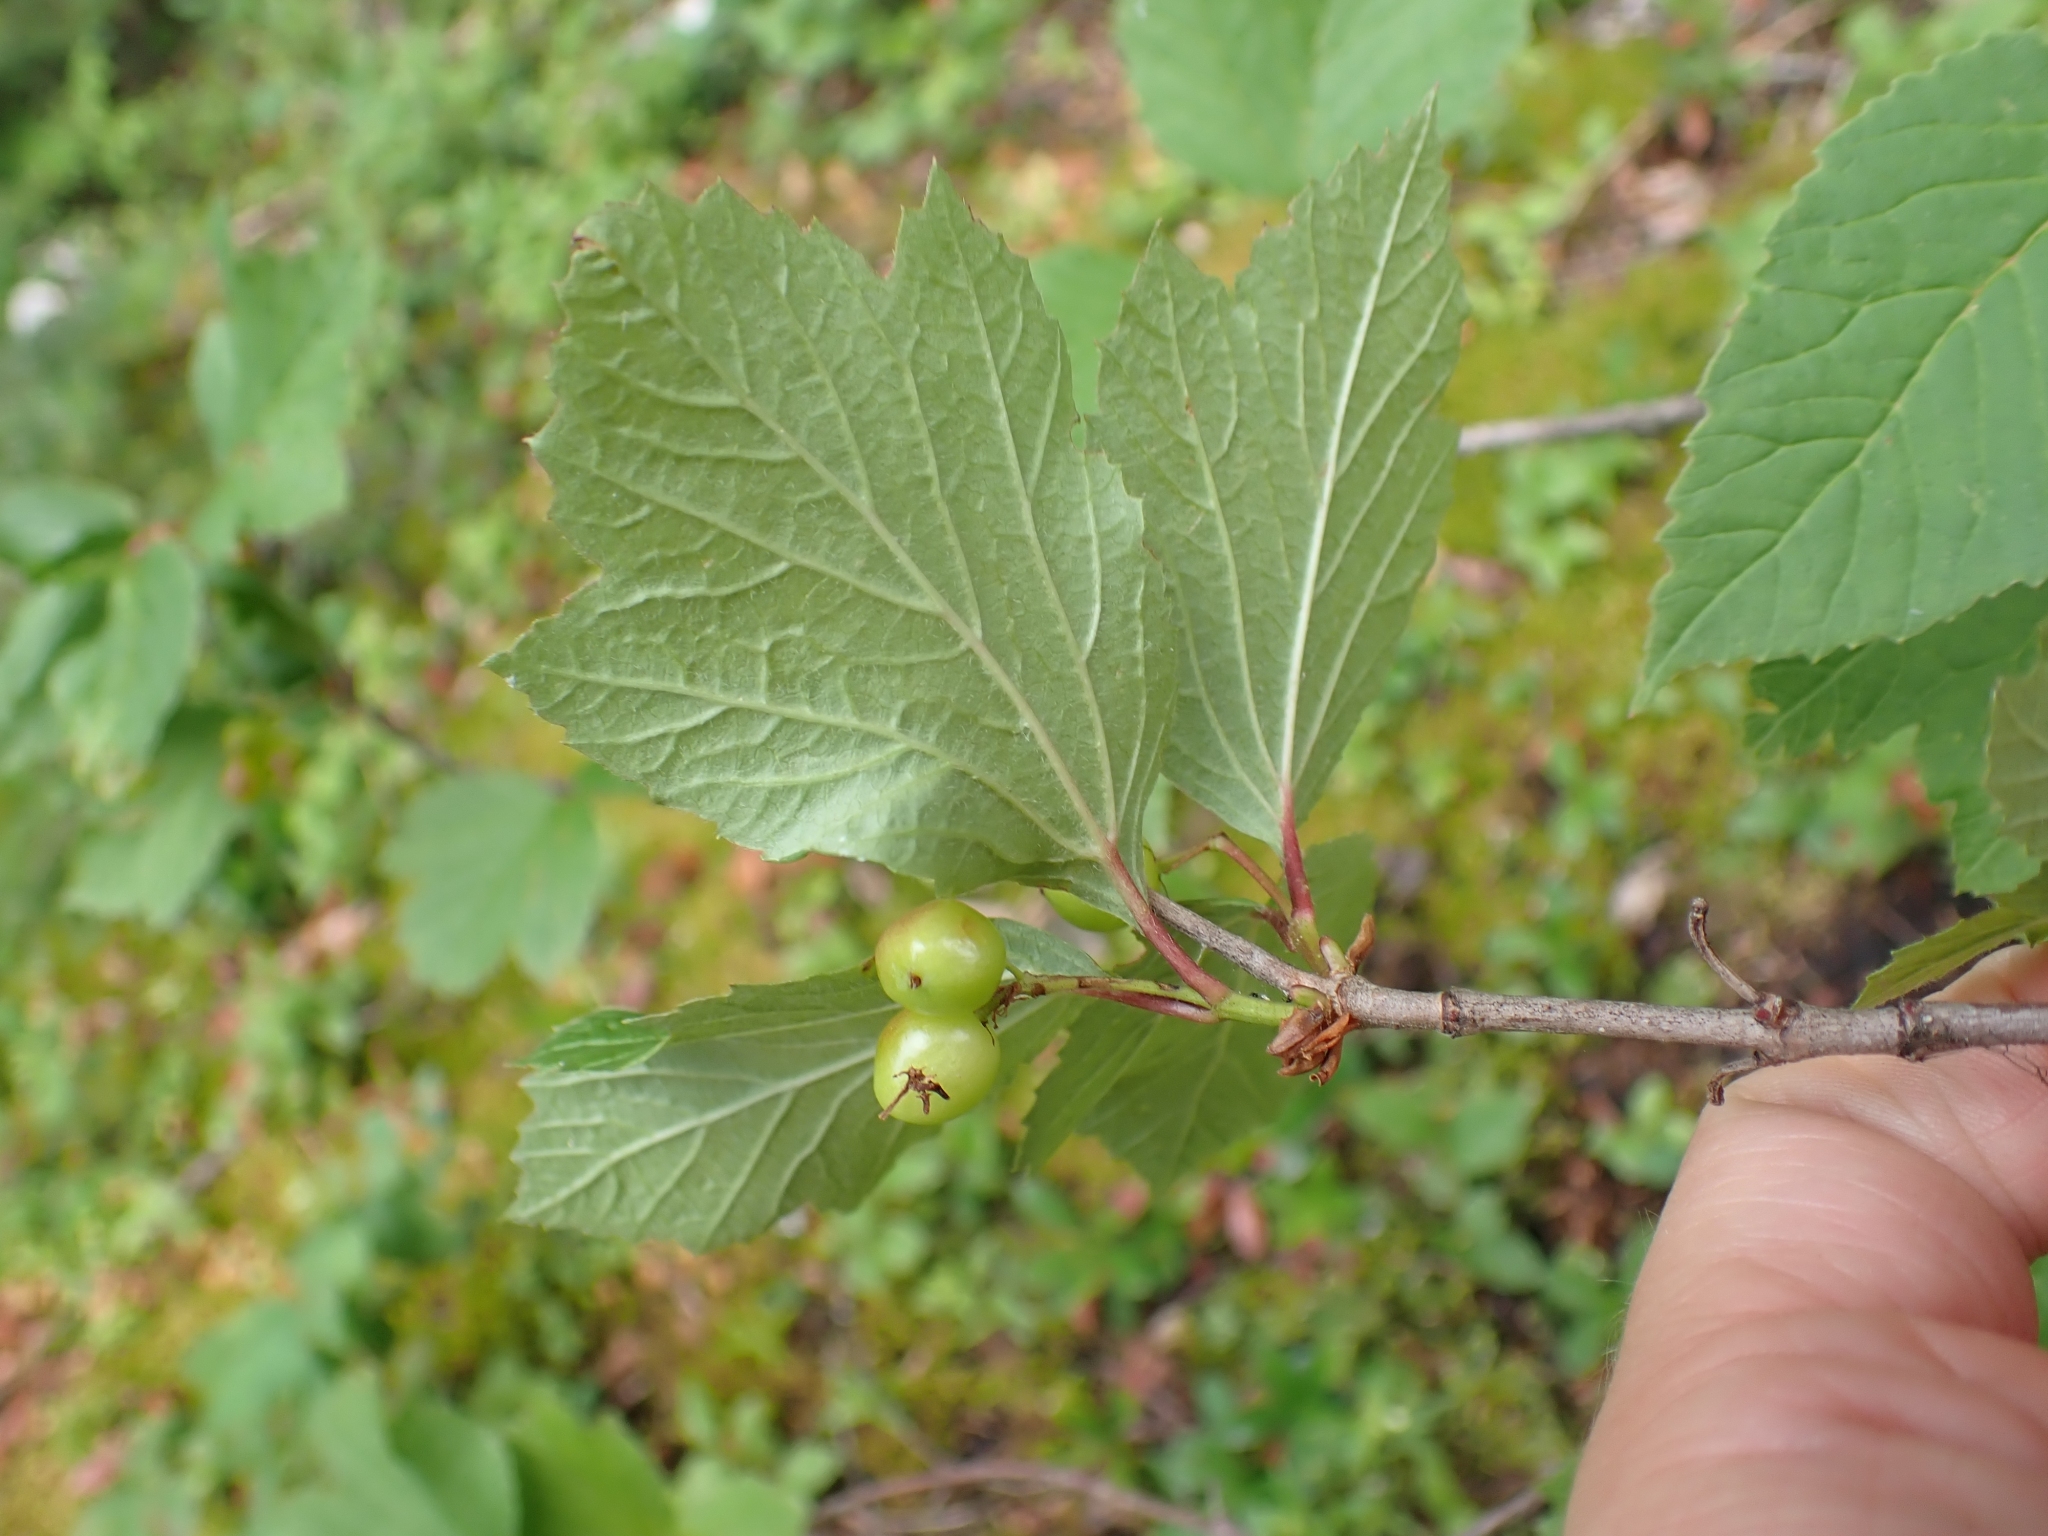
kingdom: Plantae
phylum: Tracheophyta
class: Magnoliopsida
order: Dipsacales
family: Viburnaceae
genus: Viburnum
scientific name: Viburnum edule
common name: Mooseberry
